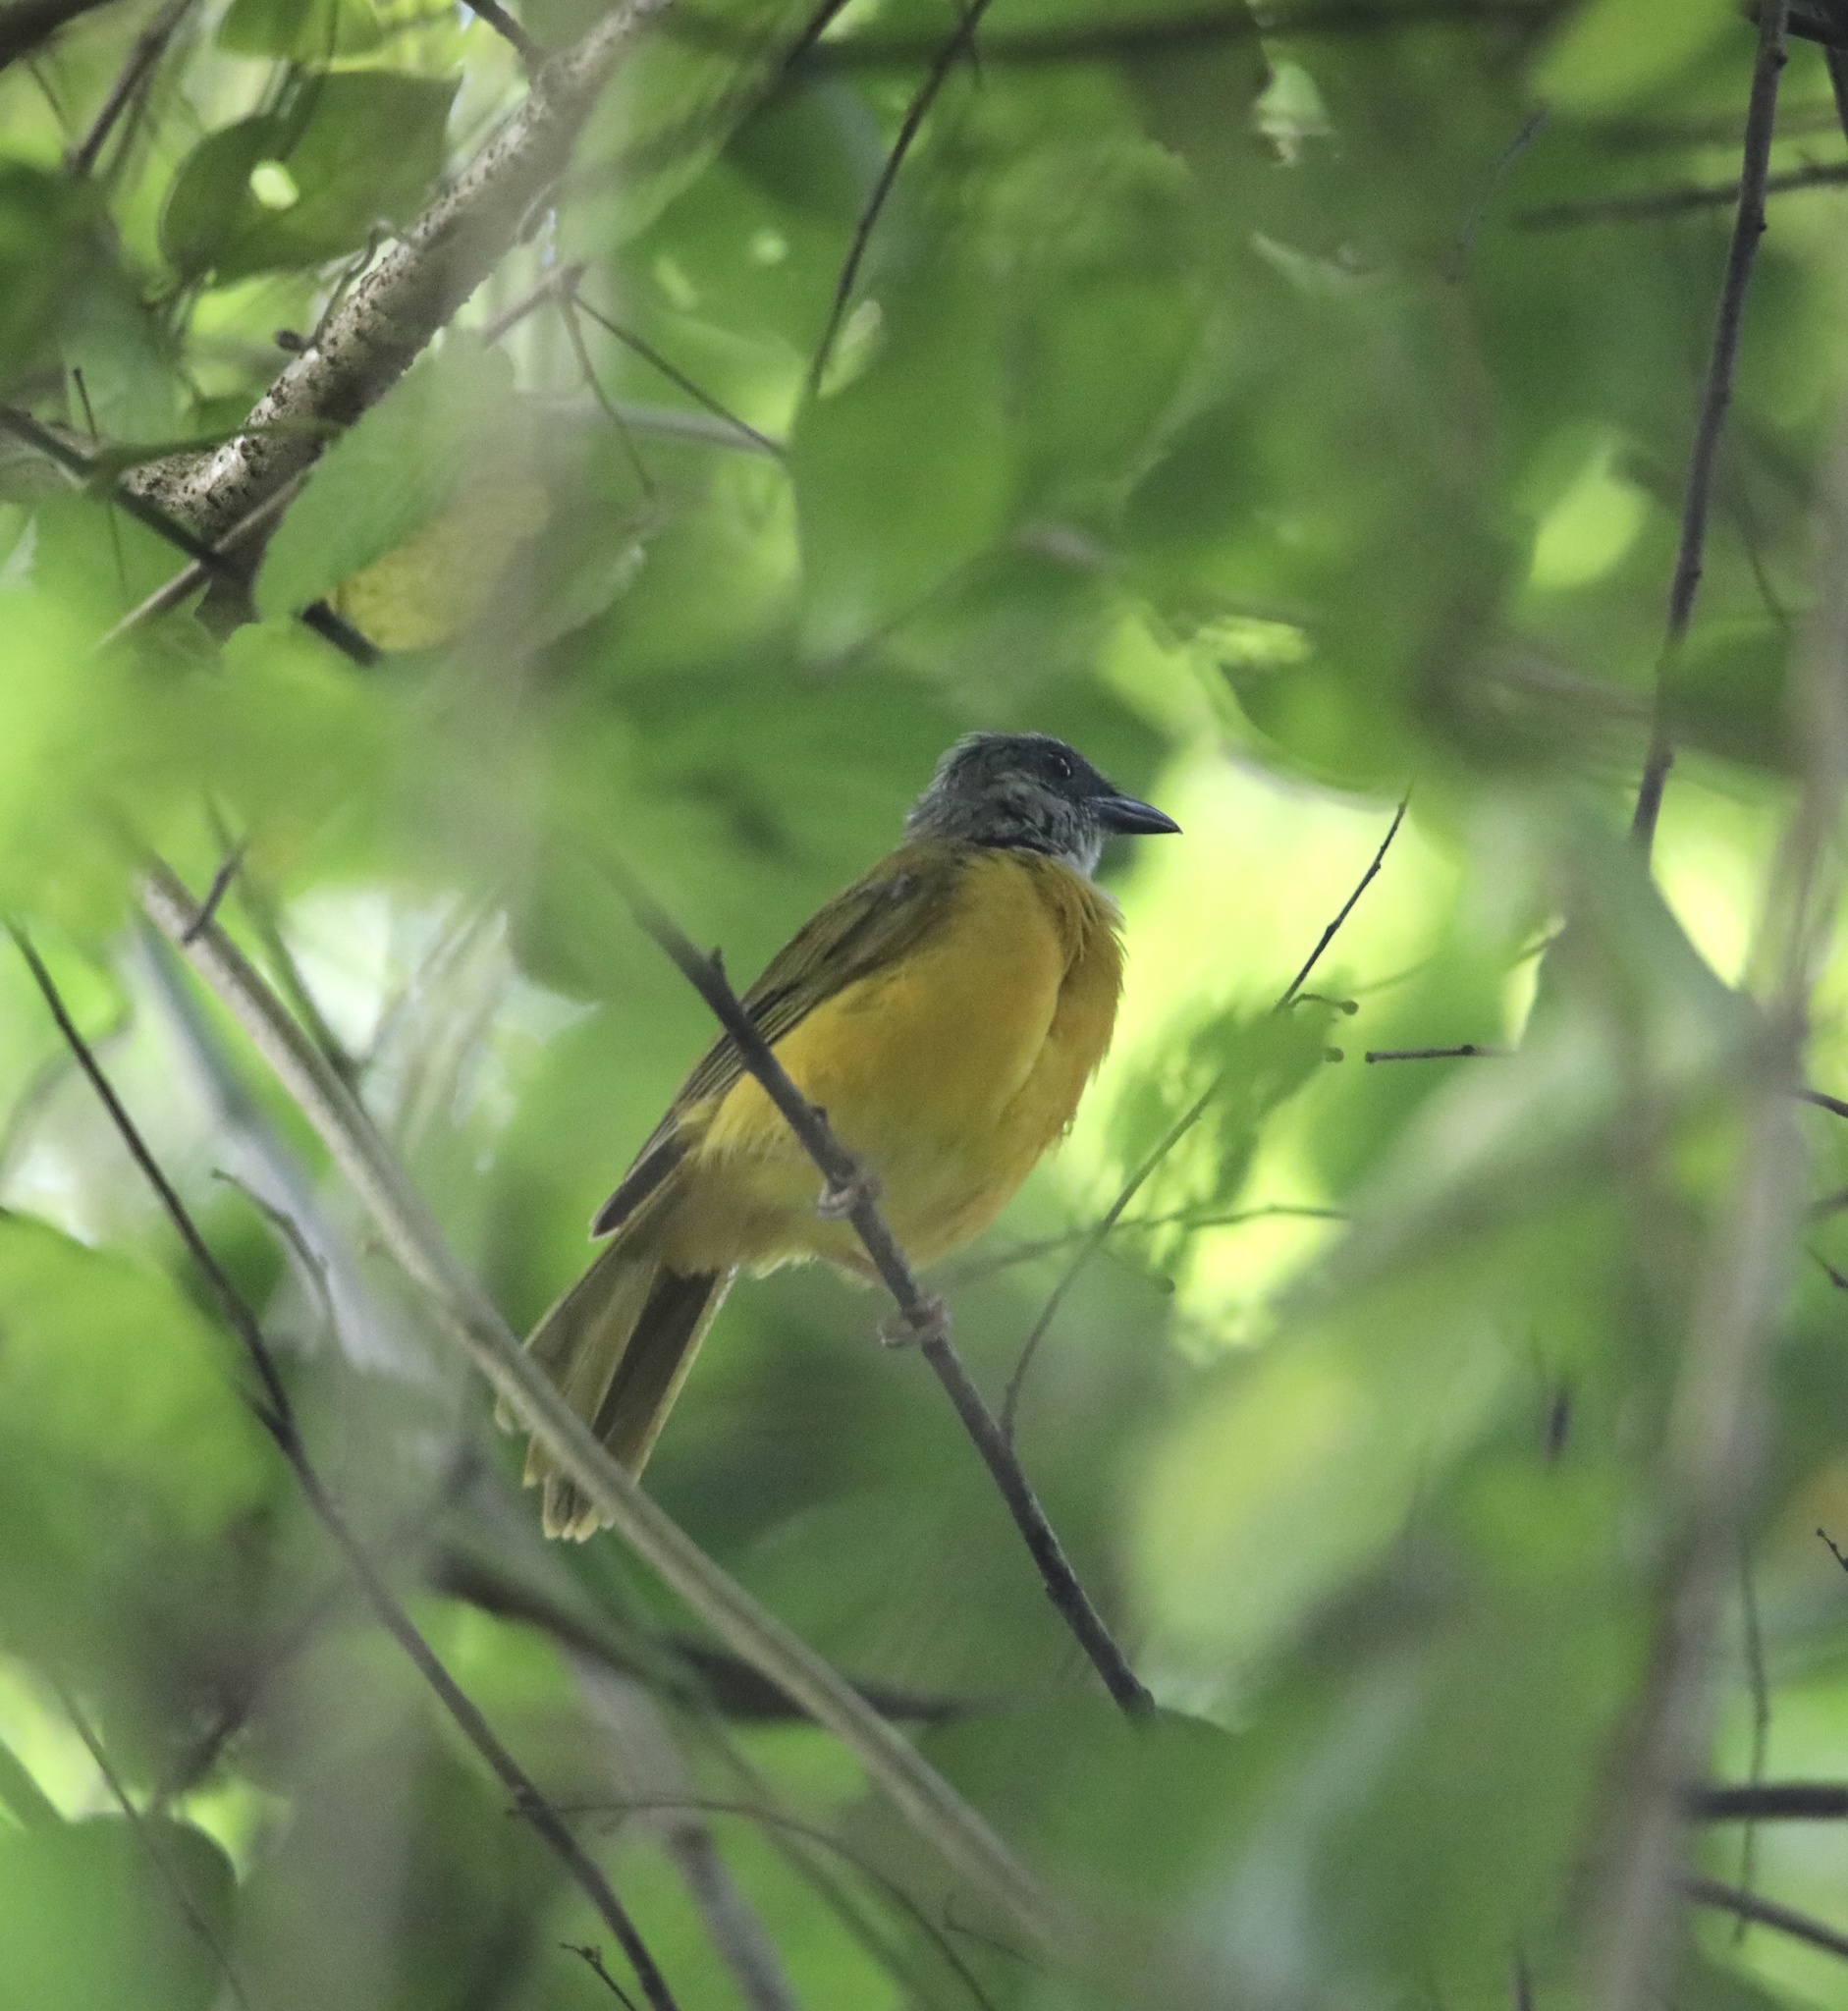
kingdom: Animalia
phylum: Chordata
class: Aves
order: Passeriformes
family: Thraupidae
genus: Eucometis
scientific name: Eucometis penicillata
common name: Grey-headed tanager
